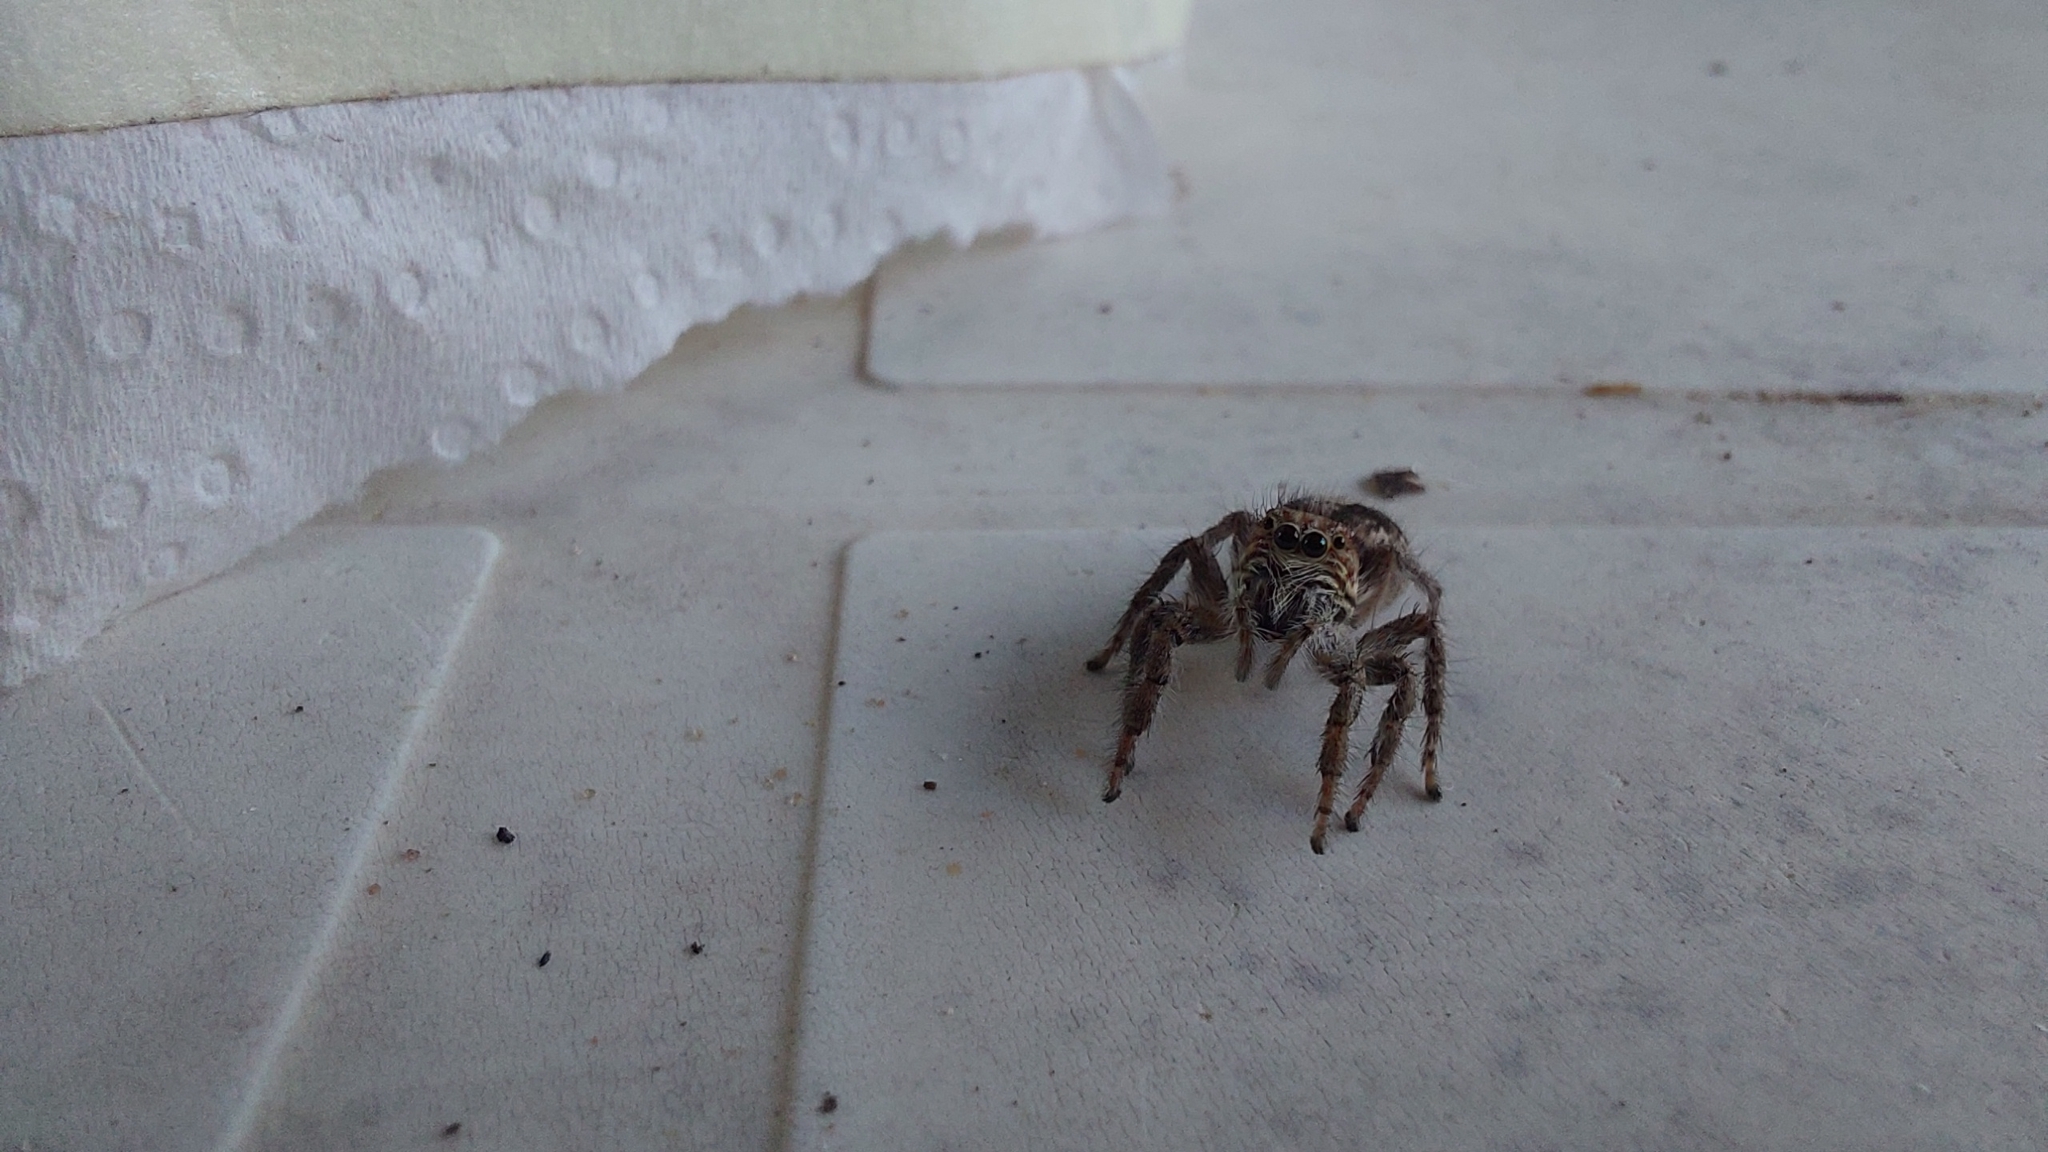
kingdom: Animalia
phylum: Arthropoda
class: Arachnida
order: Araneae
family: Salticidae
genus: Megafreya
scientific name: Megafreya sutrix
